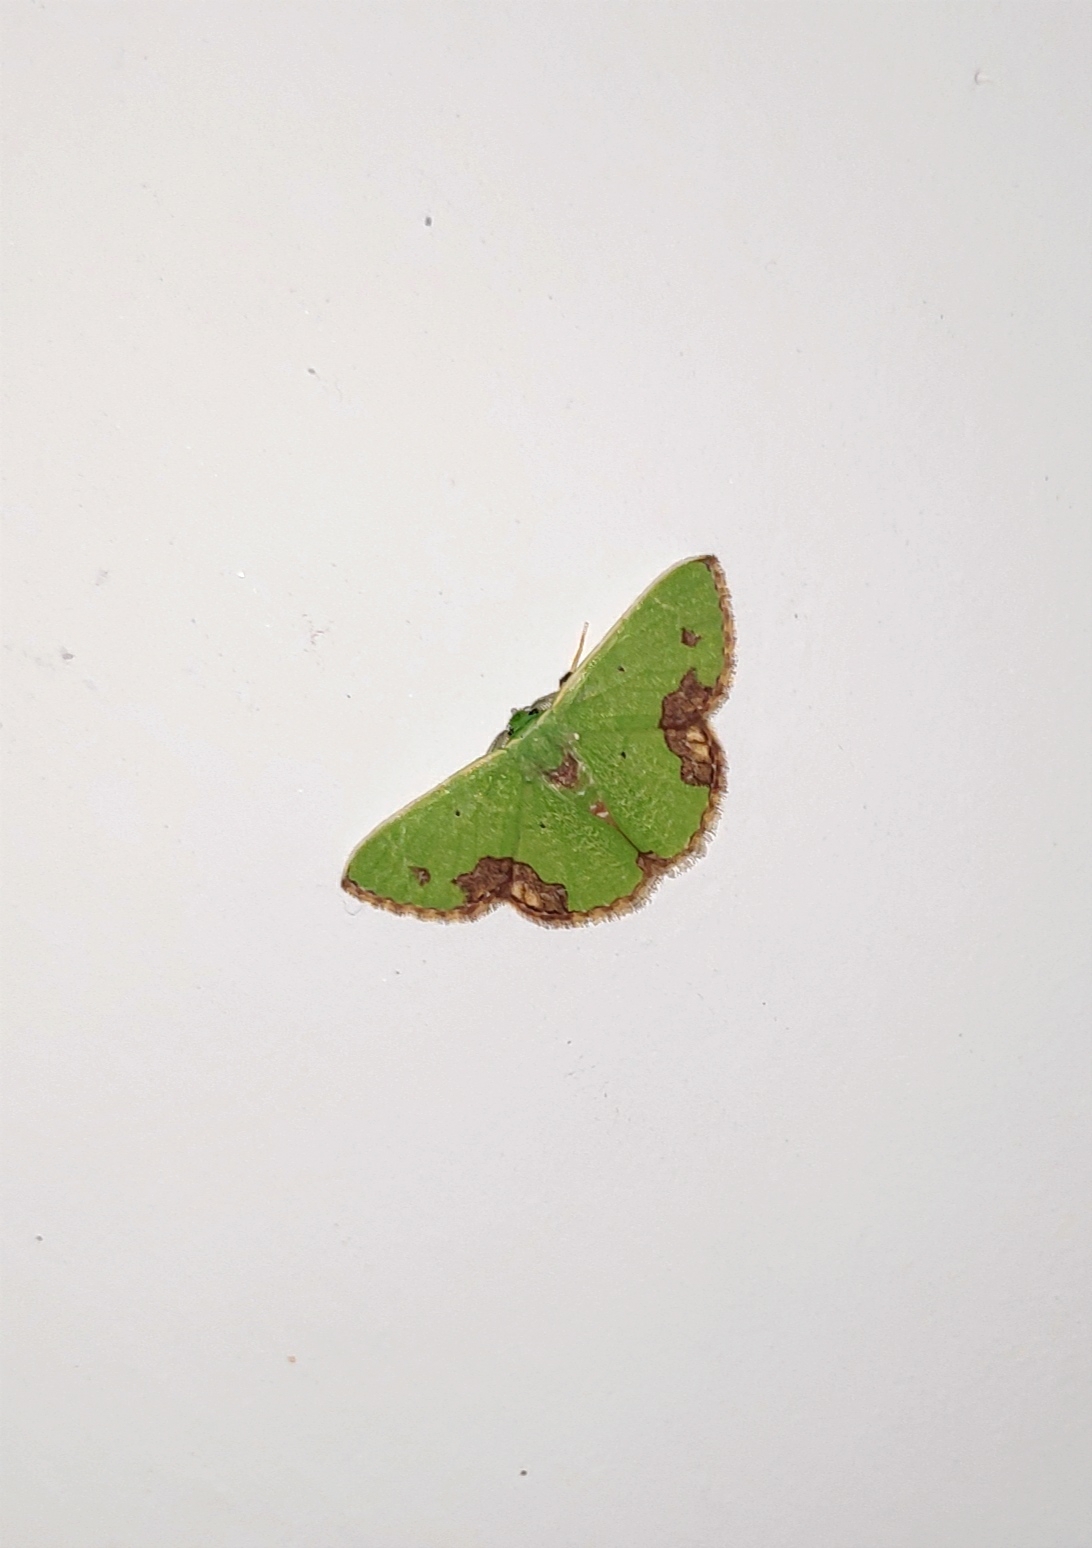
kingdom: Animalia
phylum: Arthropoda
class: Insecta
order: Lepidoptera
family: Geometridae
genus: Comibaena
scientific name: Comibaena attenuata
